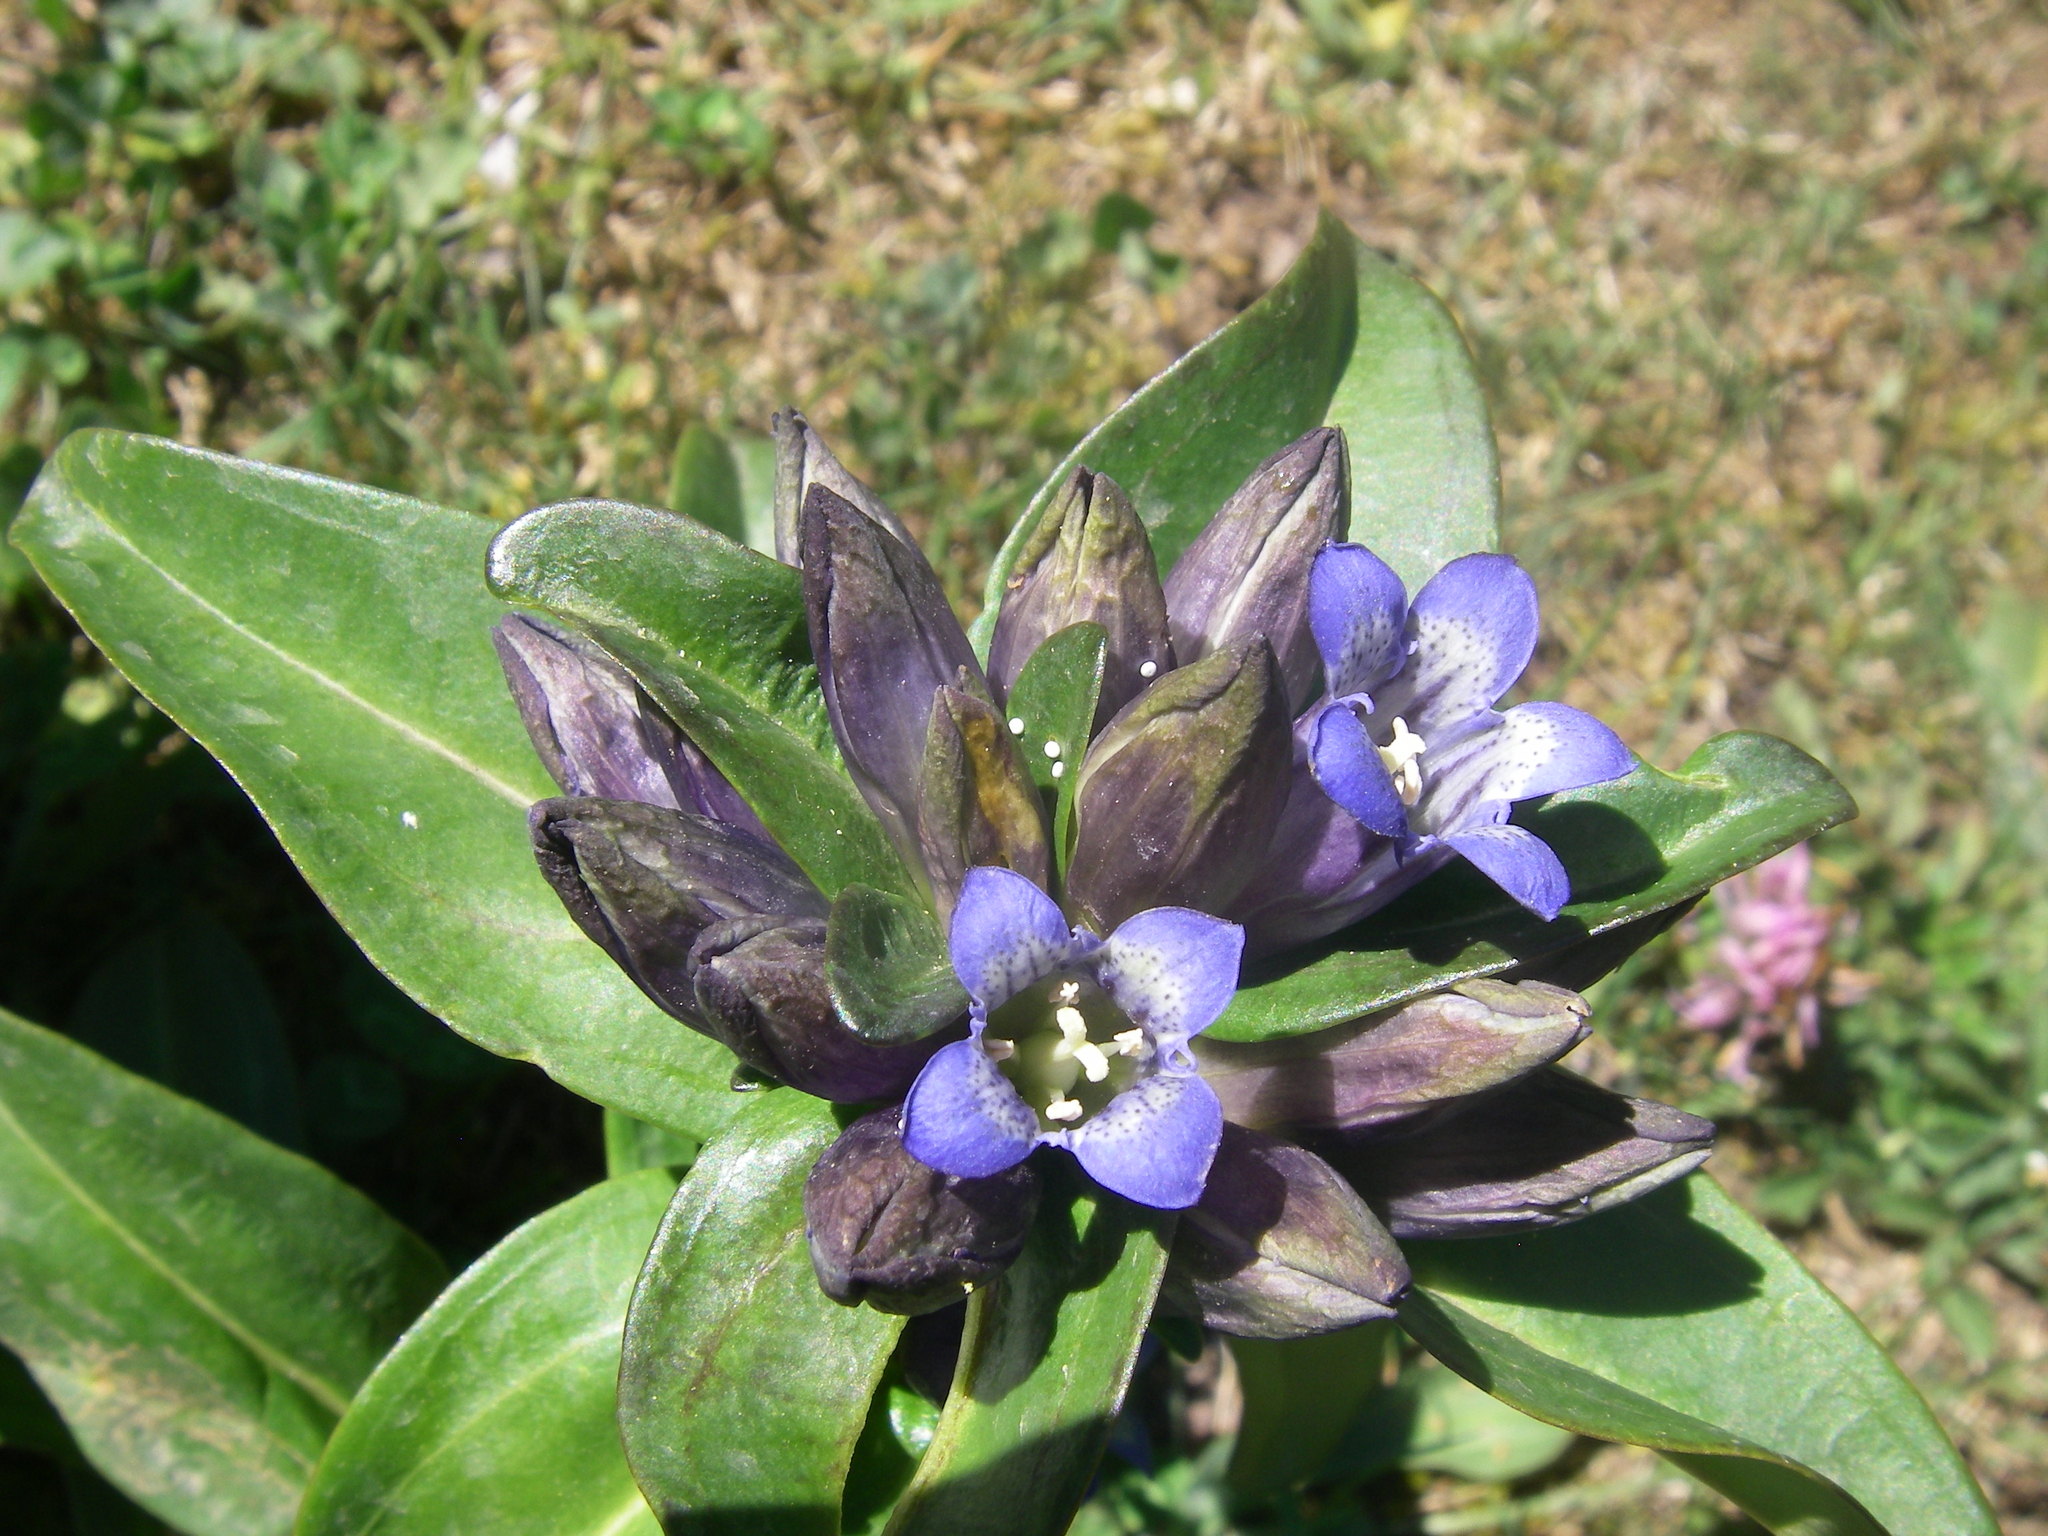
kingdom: Plantae
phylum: Tracheophyta
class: Magnoliopsida
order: Gentianales
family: Gentianaceae
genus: Gentiana
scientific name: Gentiana cruciata
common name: Cross gentian
